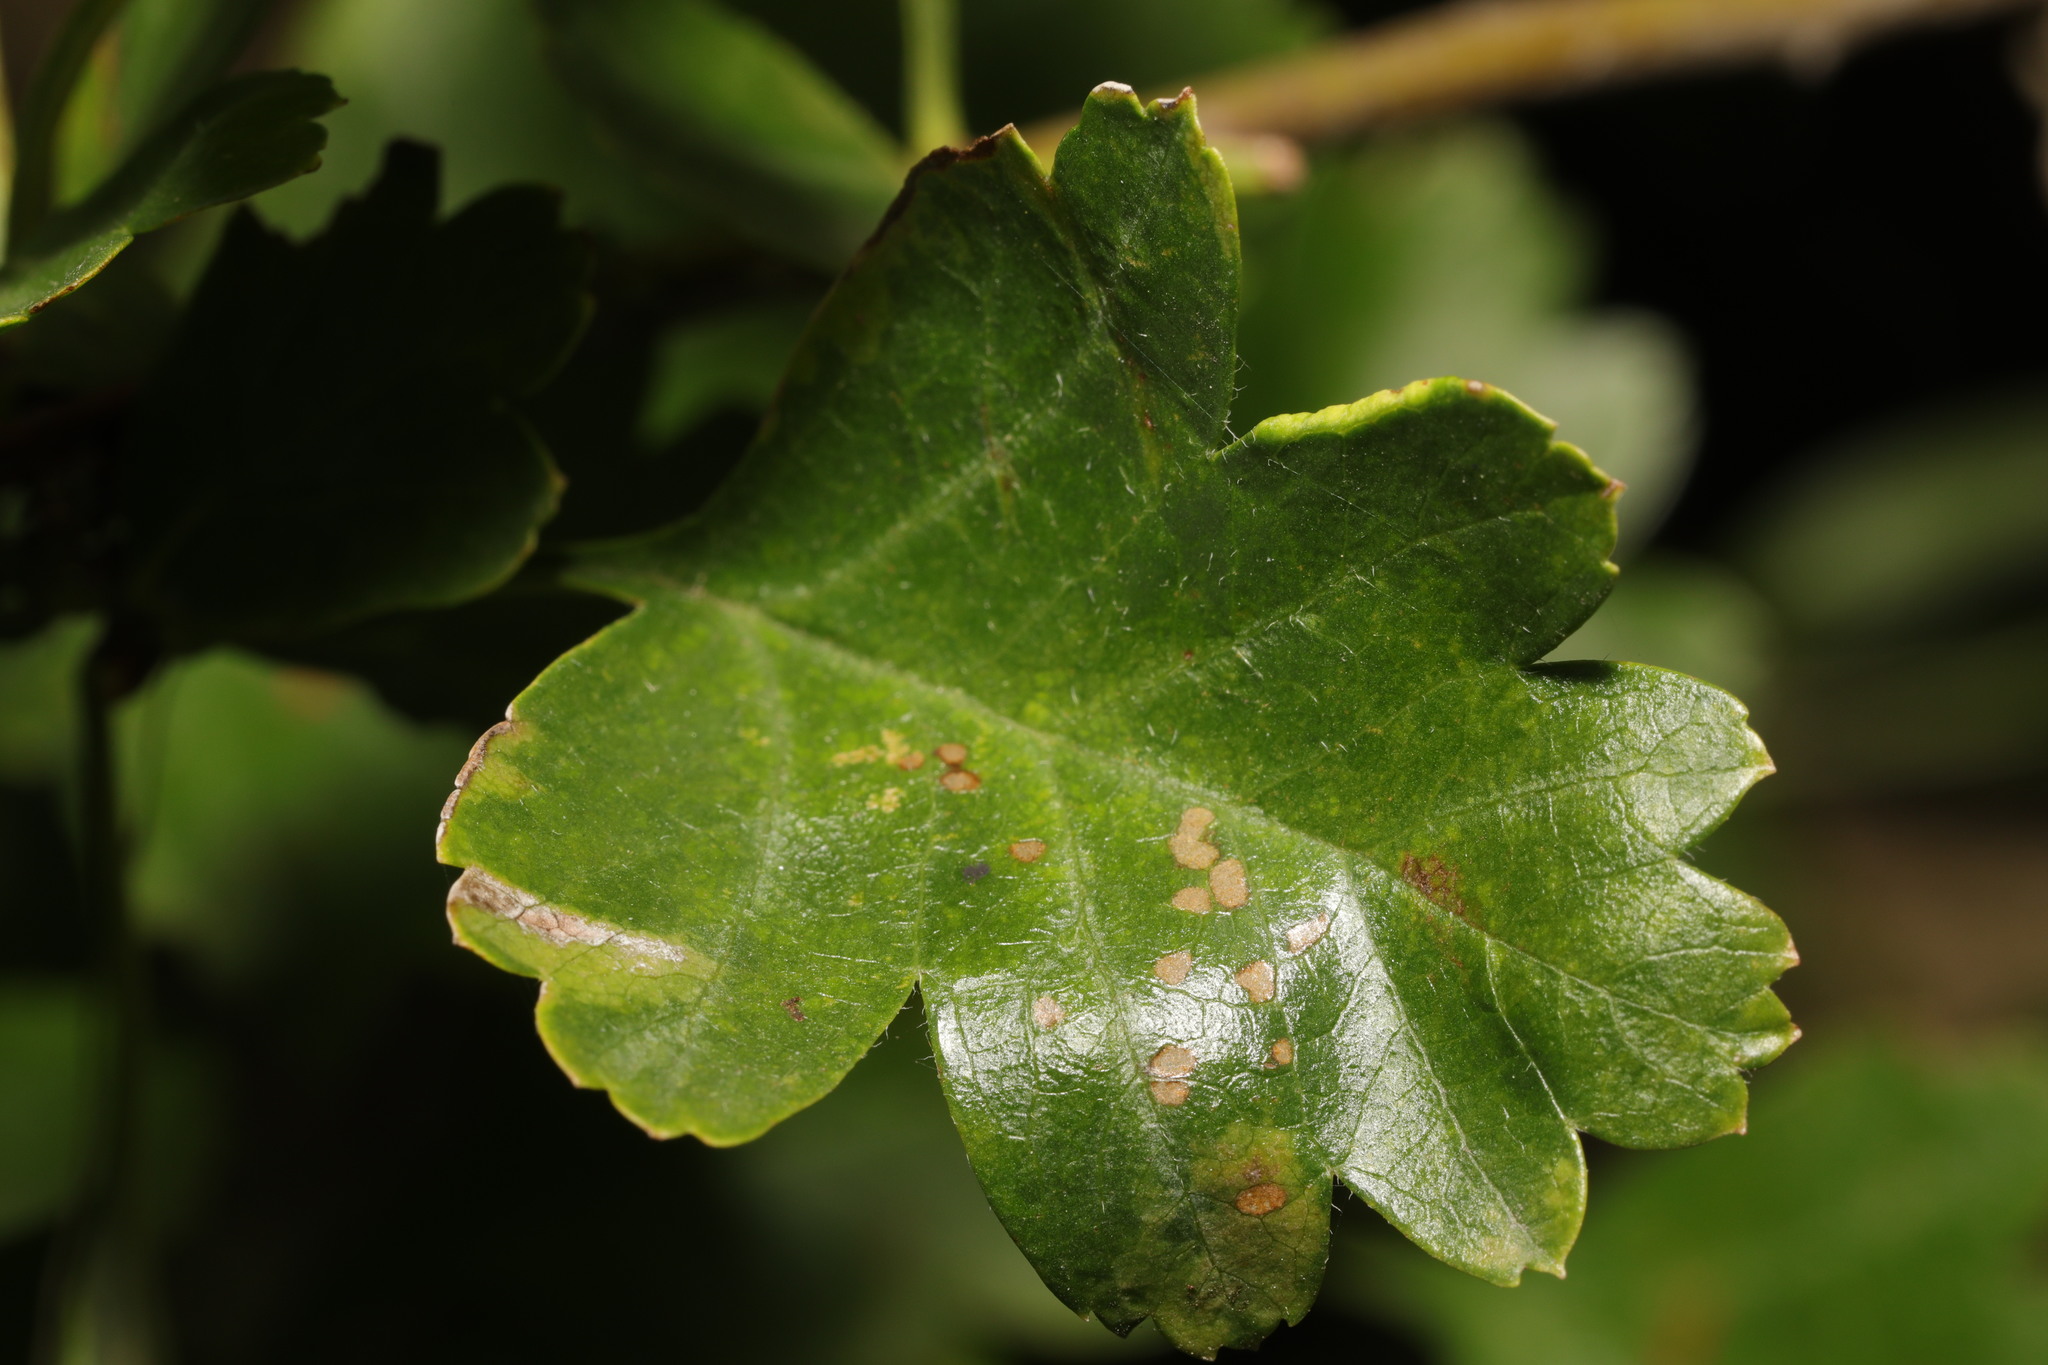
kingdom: Animalia
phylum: Arthropoda
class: Arachnida
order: Trombidiformes
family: Eriophyidae
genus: Phyllocoptes
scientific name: Phyllocoptes goniothorax
